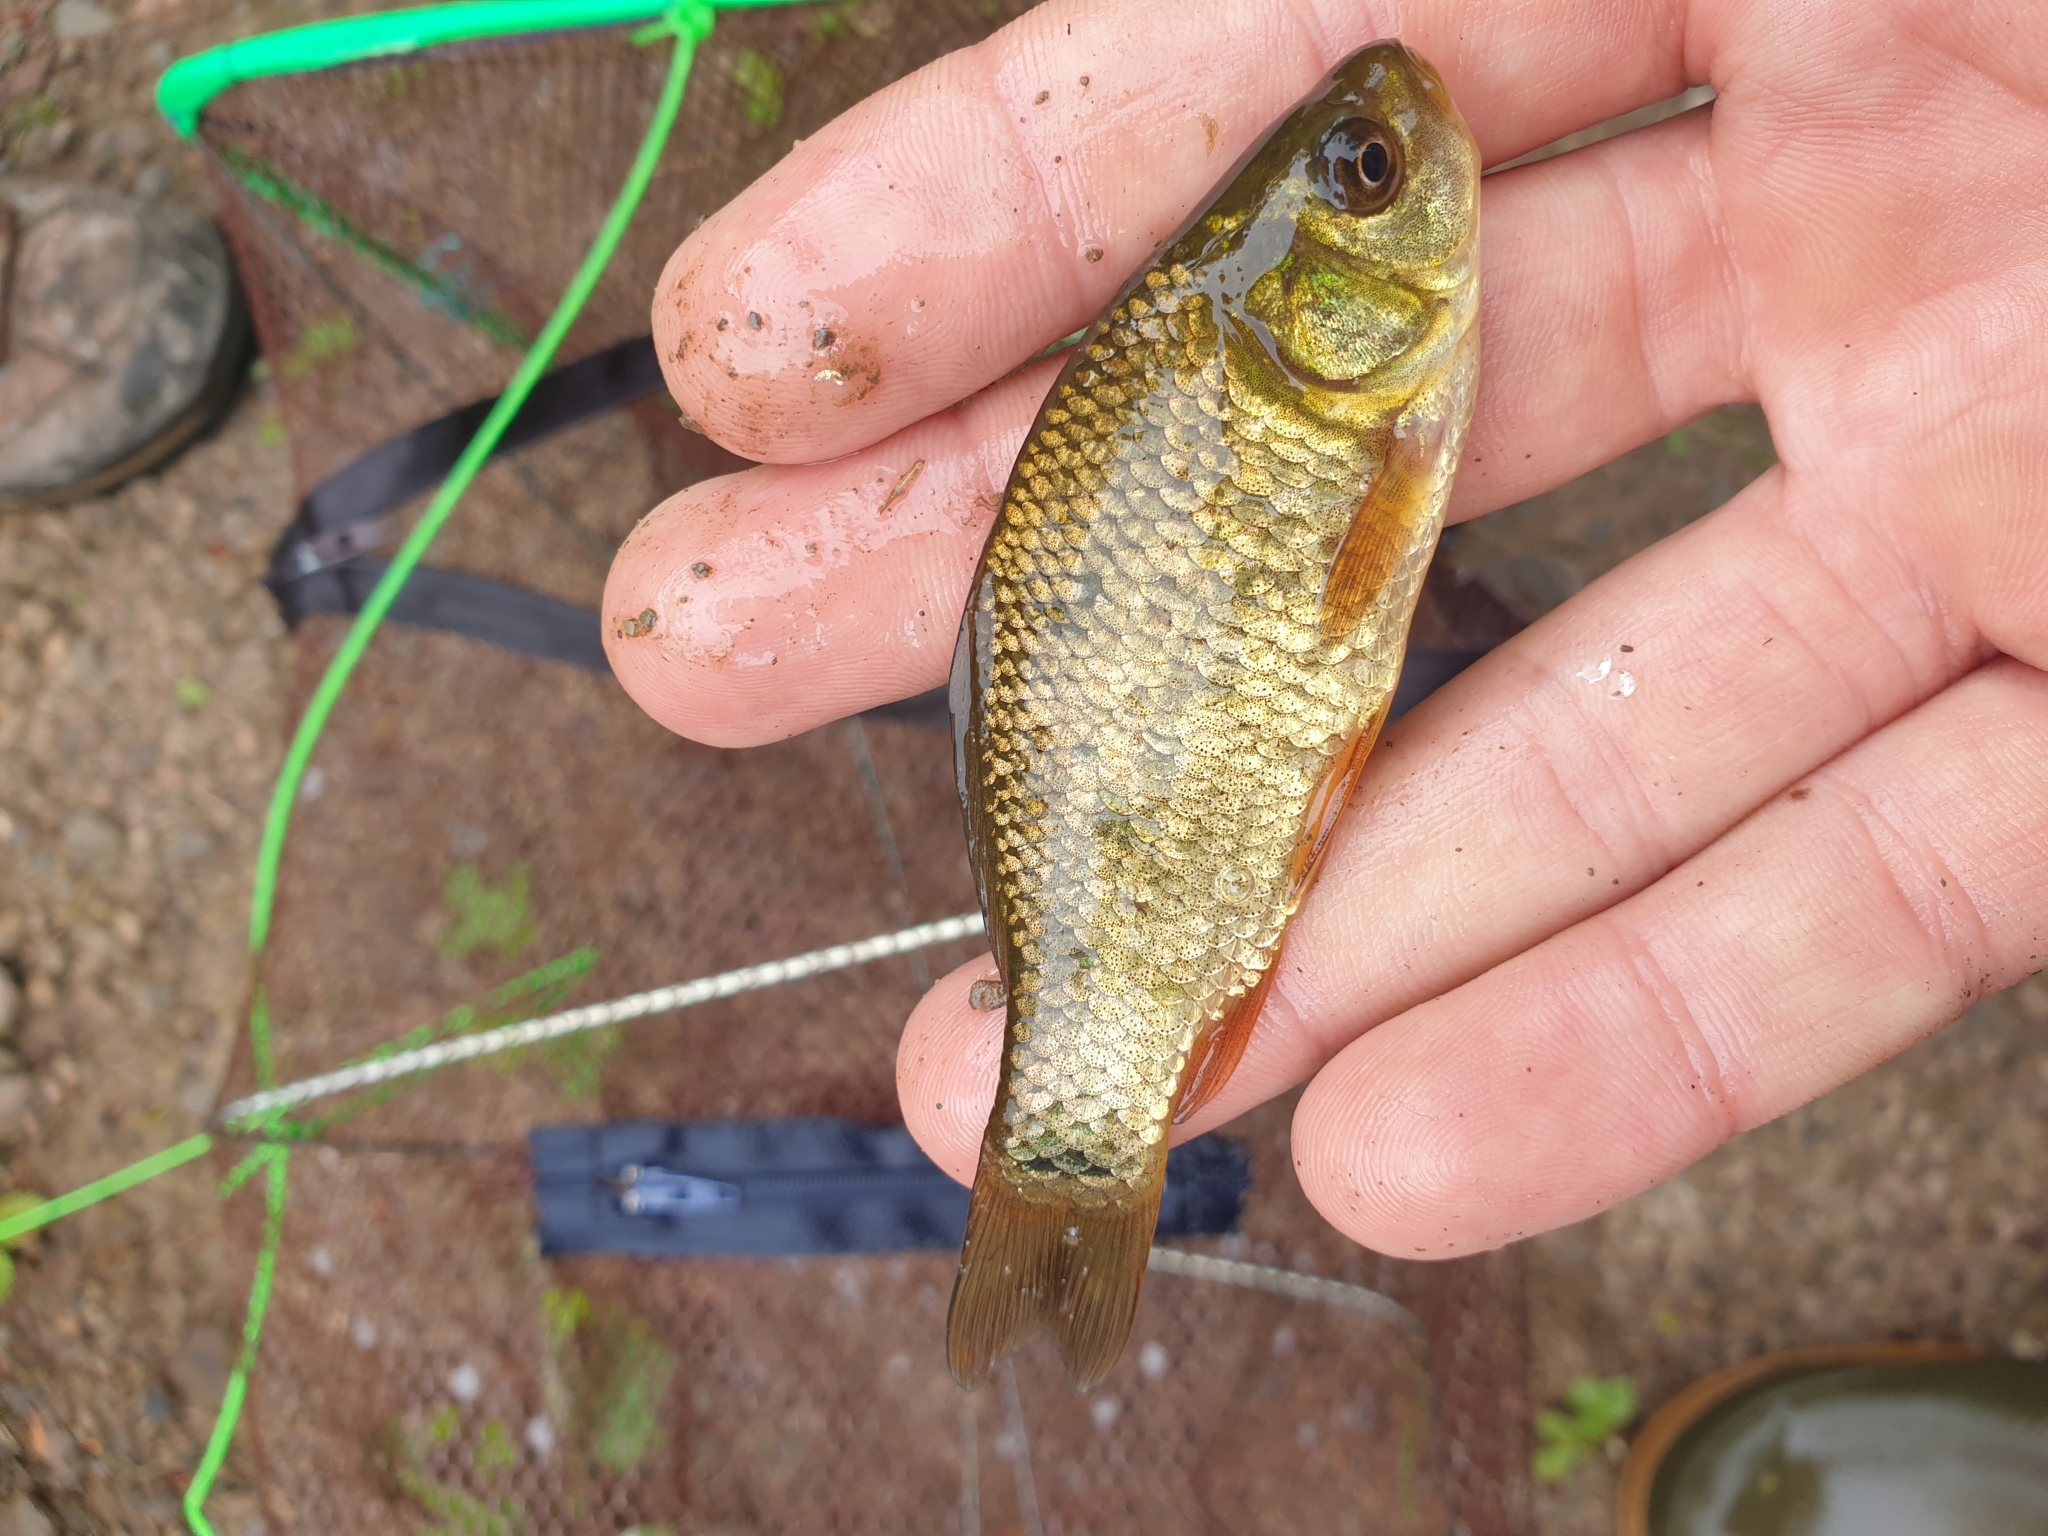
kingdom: Animalia
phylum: Chordata
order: Cypriniformes
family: Cyprinidae
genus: Carassius
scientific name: Carassius carassius
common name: Crucian carp
